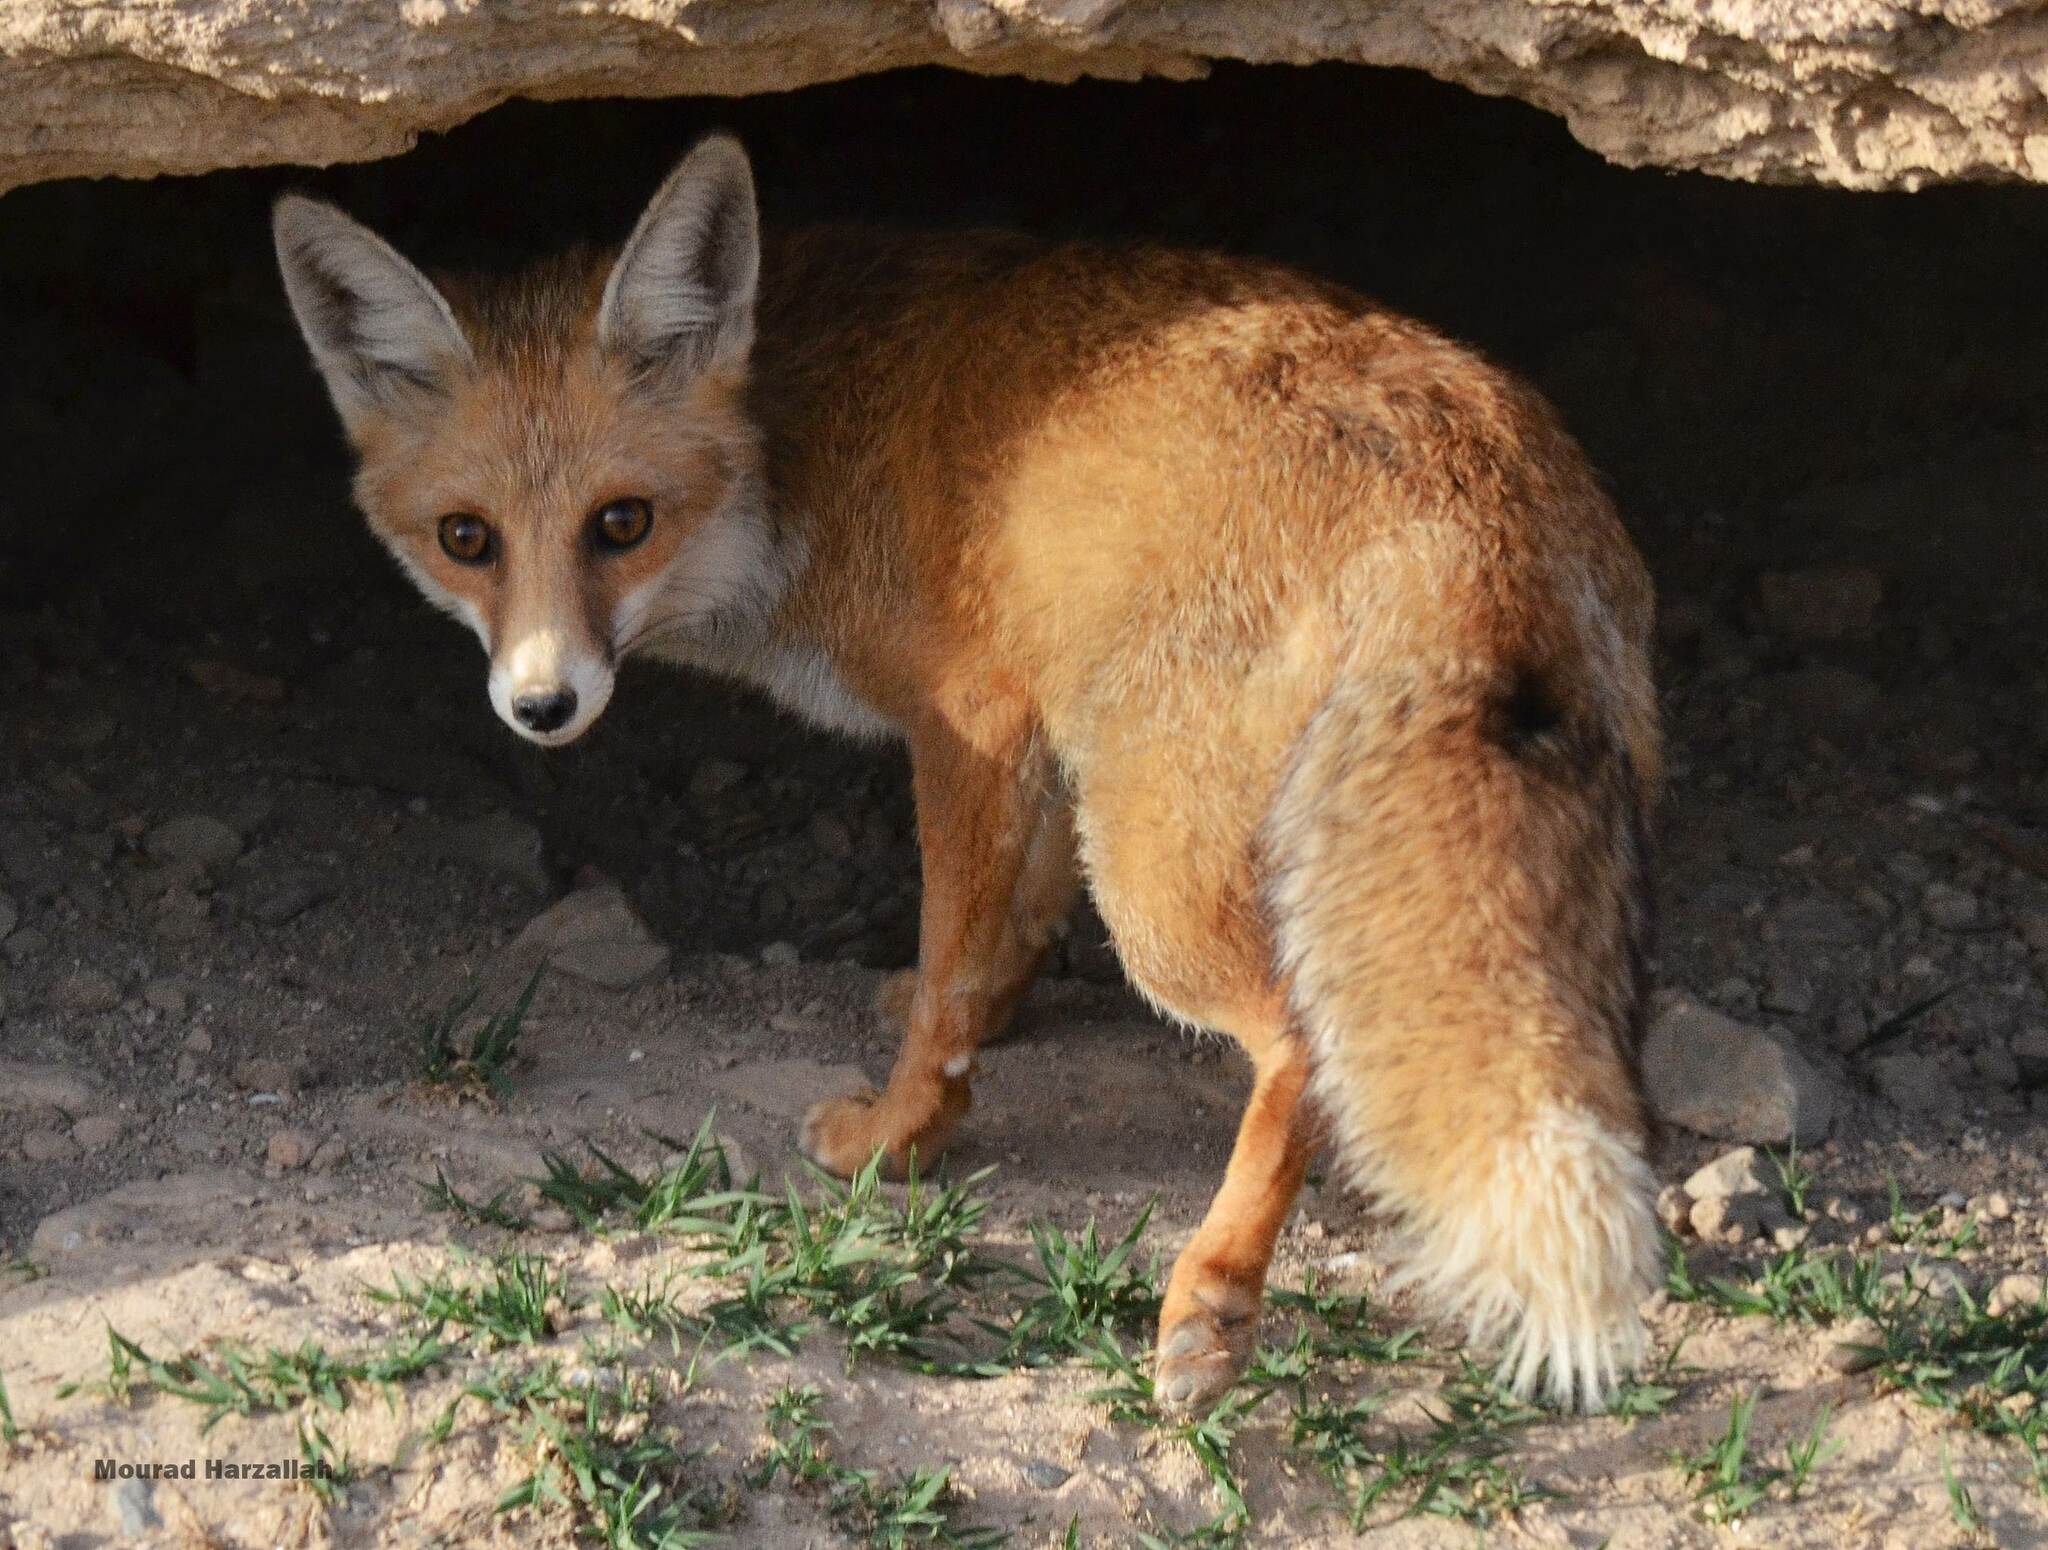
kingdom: Animalia
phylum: Chordata
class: Mammalia
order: Carnivora
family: Canidae
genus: Vulpes
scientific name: Vulpes vulpes
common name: Red fox
